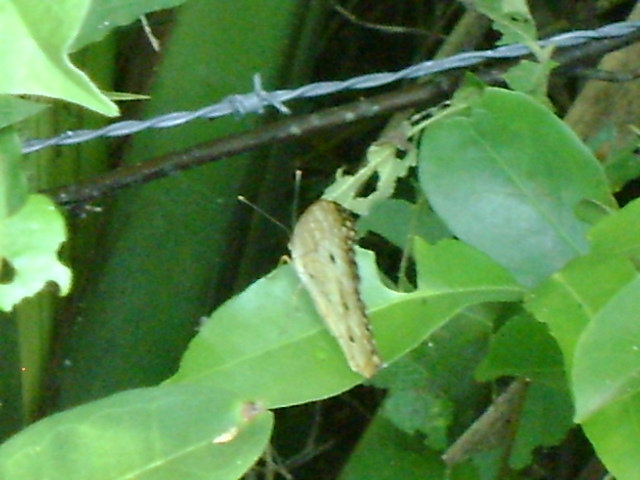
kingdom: Animalia
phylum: Arthropoda
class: Insecta
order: Lepidoptera
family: Nymphalidae
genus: Anartia
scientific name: Anartia jatrophae
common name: White peacock
